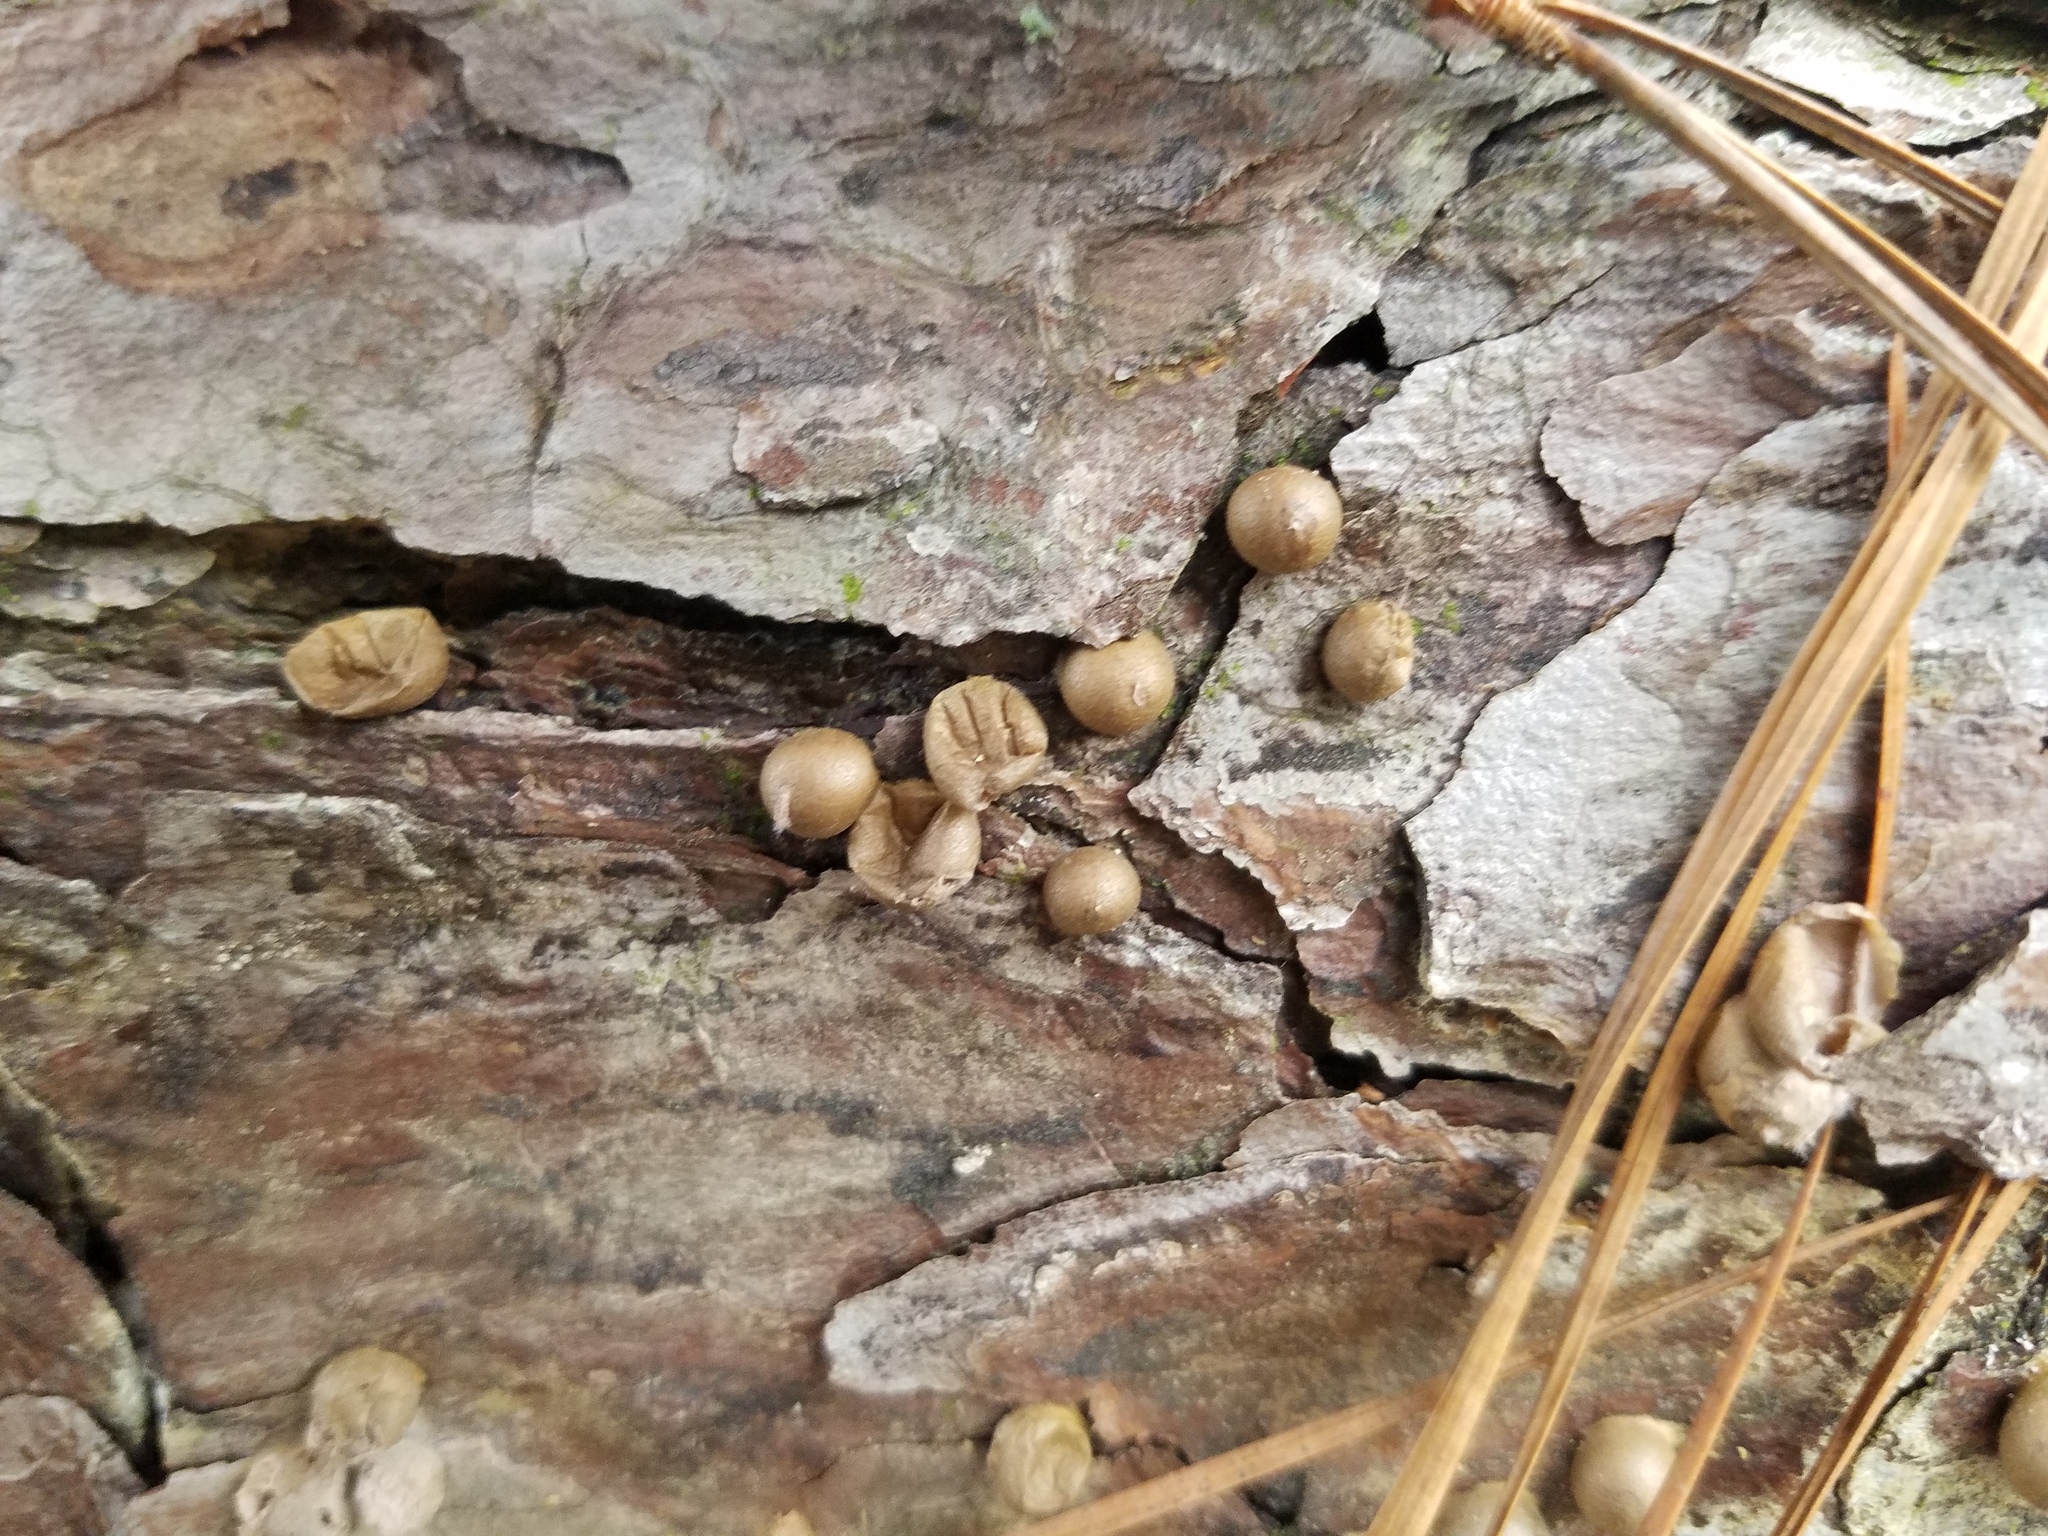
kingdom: Protozoa
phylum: Mycetozoa
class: Myxomycetes
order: Cribrariales
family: Tubiferaceae
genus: Lycogala
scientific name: Lycogala epidendrum
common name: Wolf's milk
